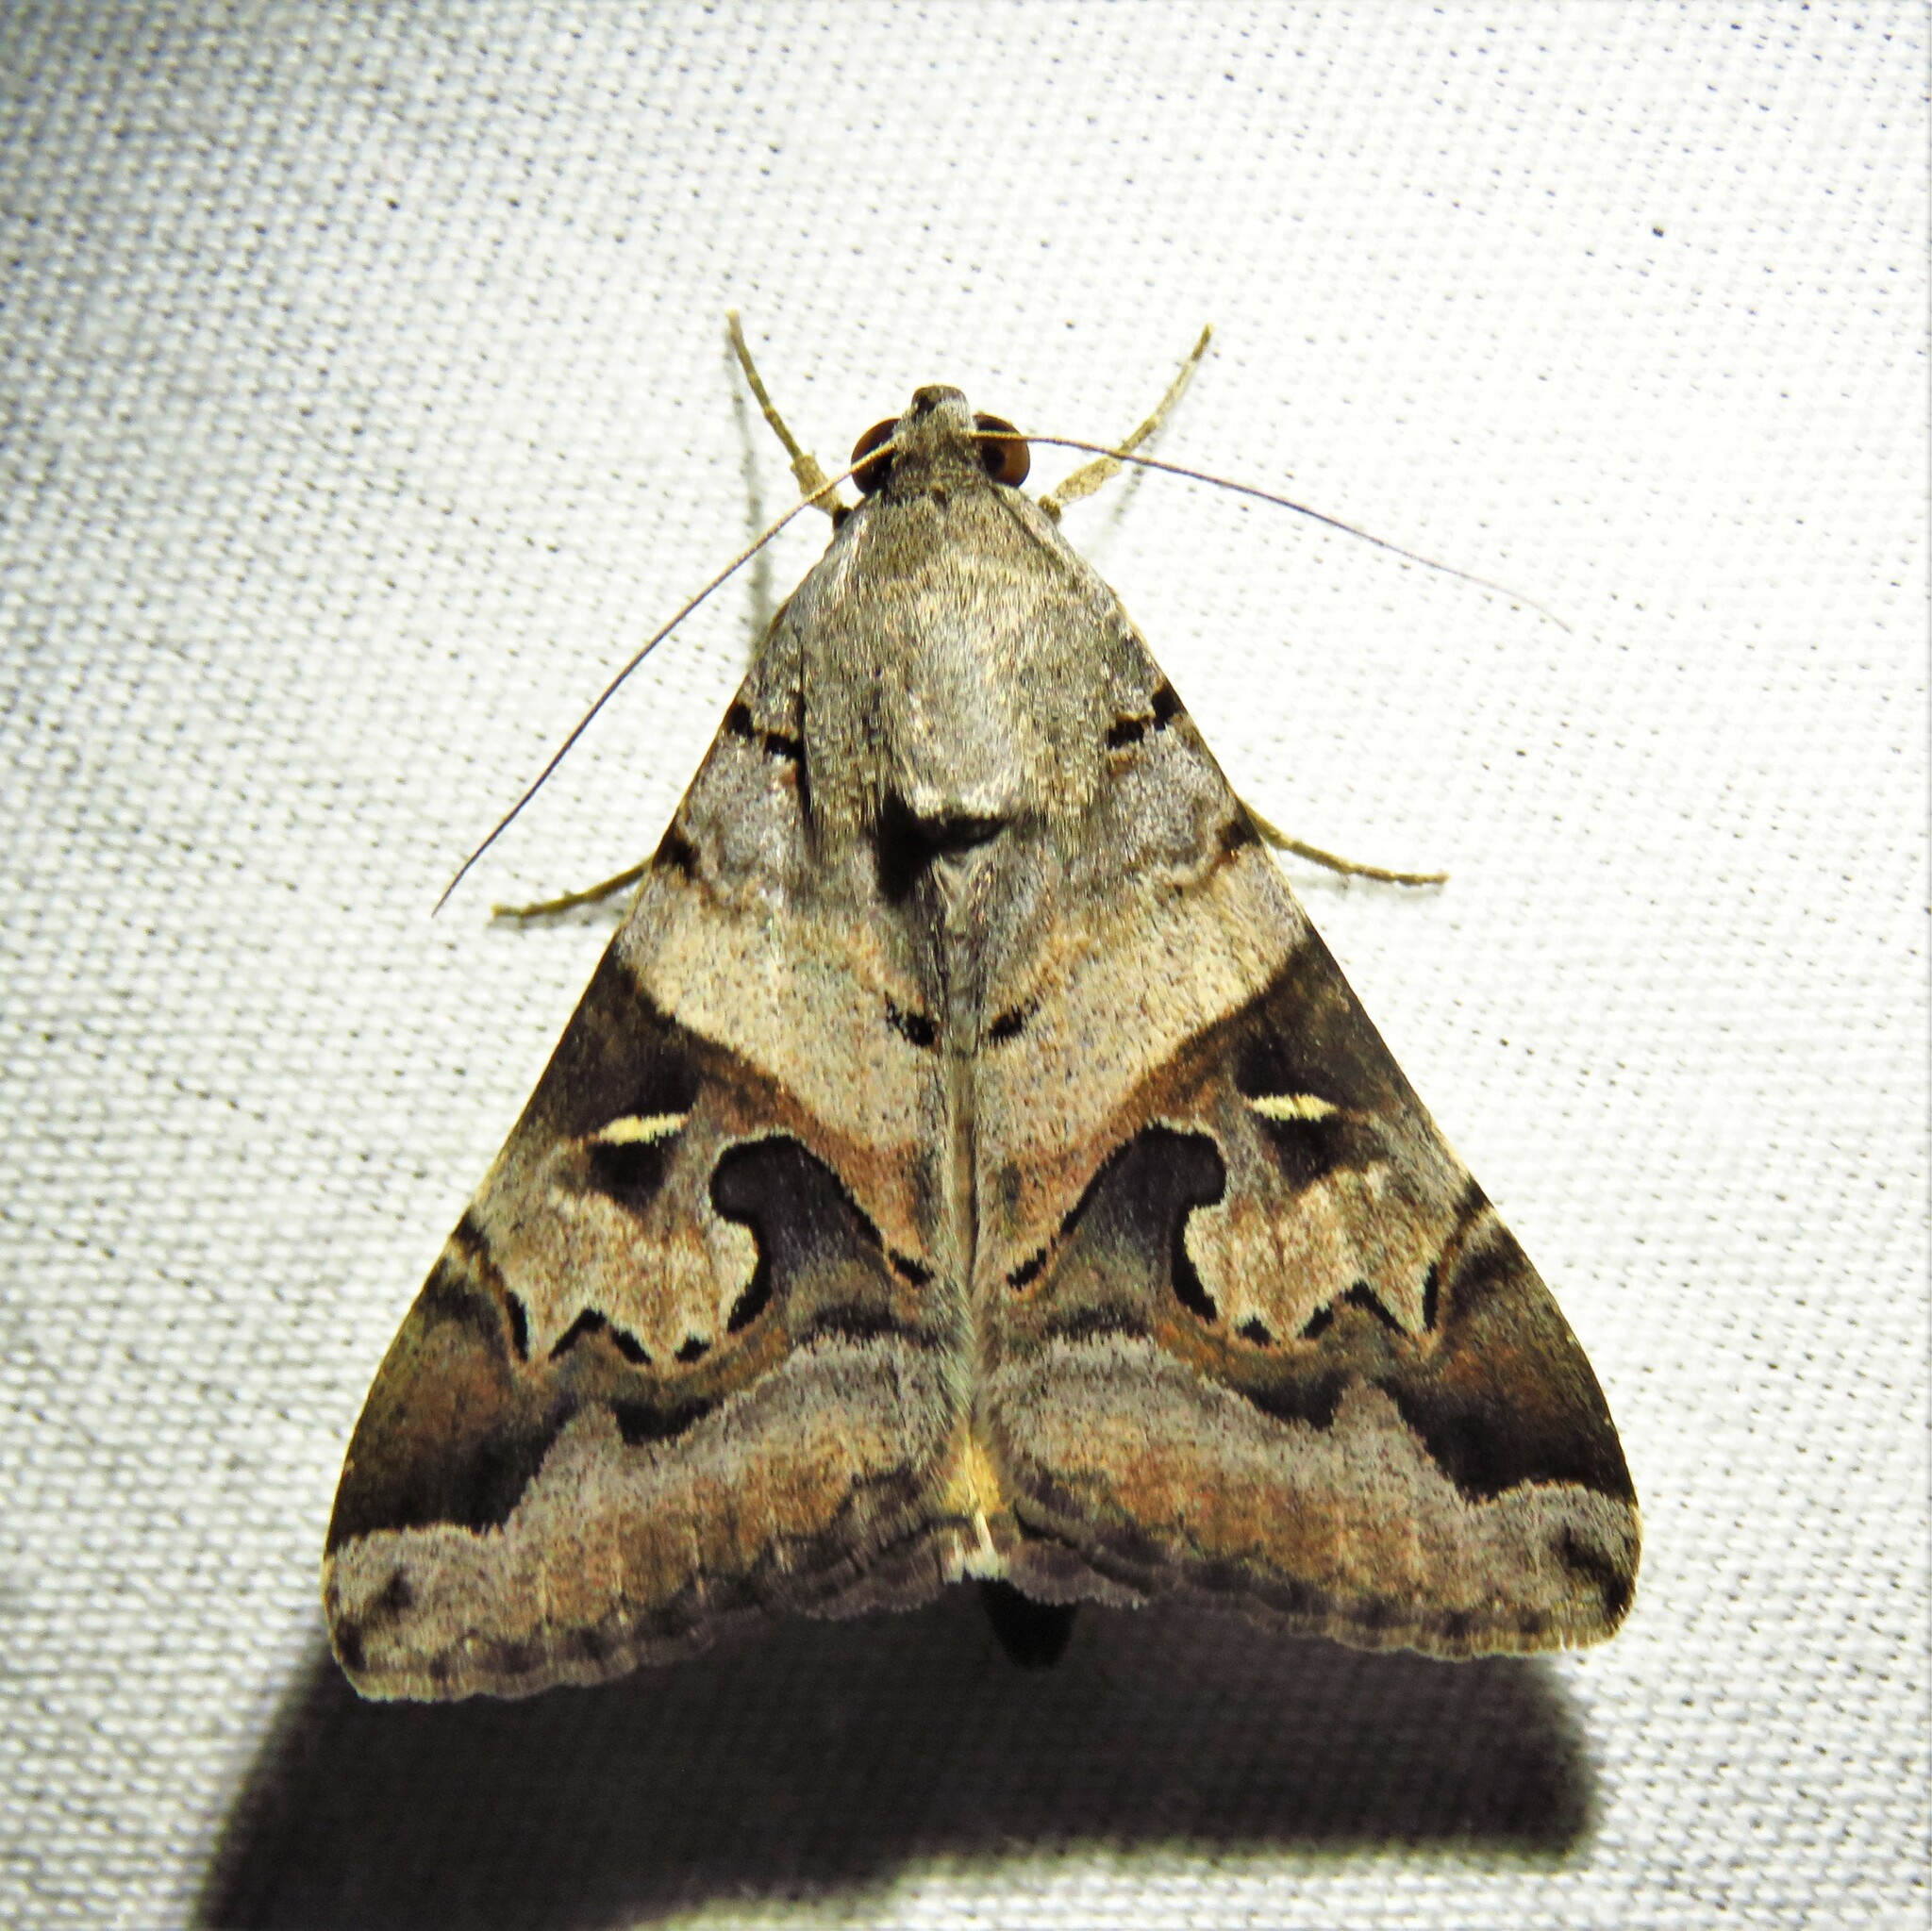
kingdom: Animalia
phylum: Arthropoda
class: Insecta
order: Lepidoptera
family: Erebidae
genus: Melipotis
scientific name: Melipotis indomita
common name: Moth
